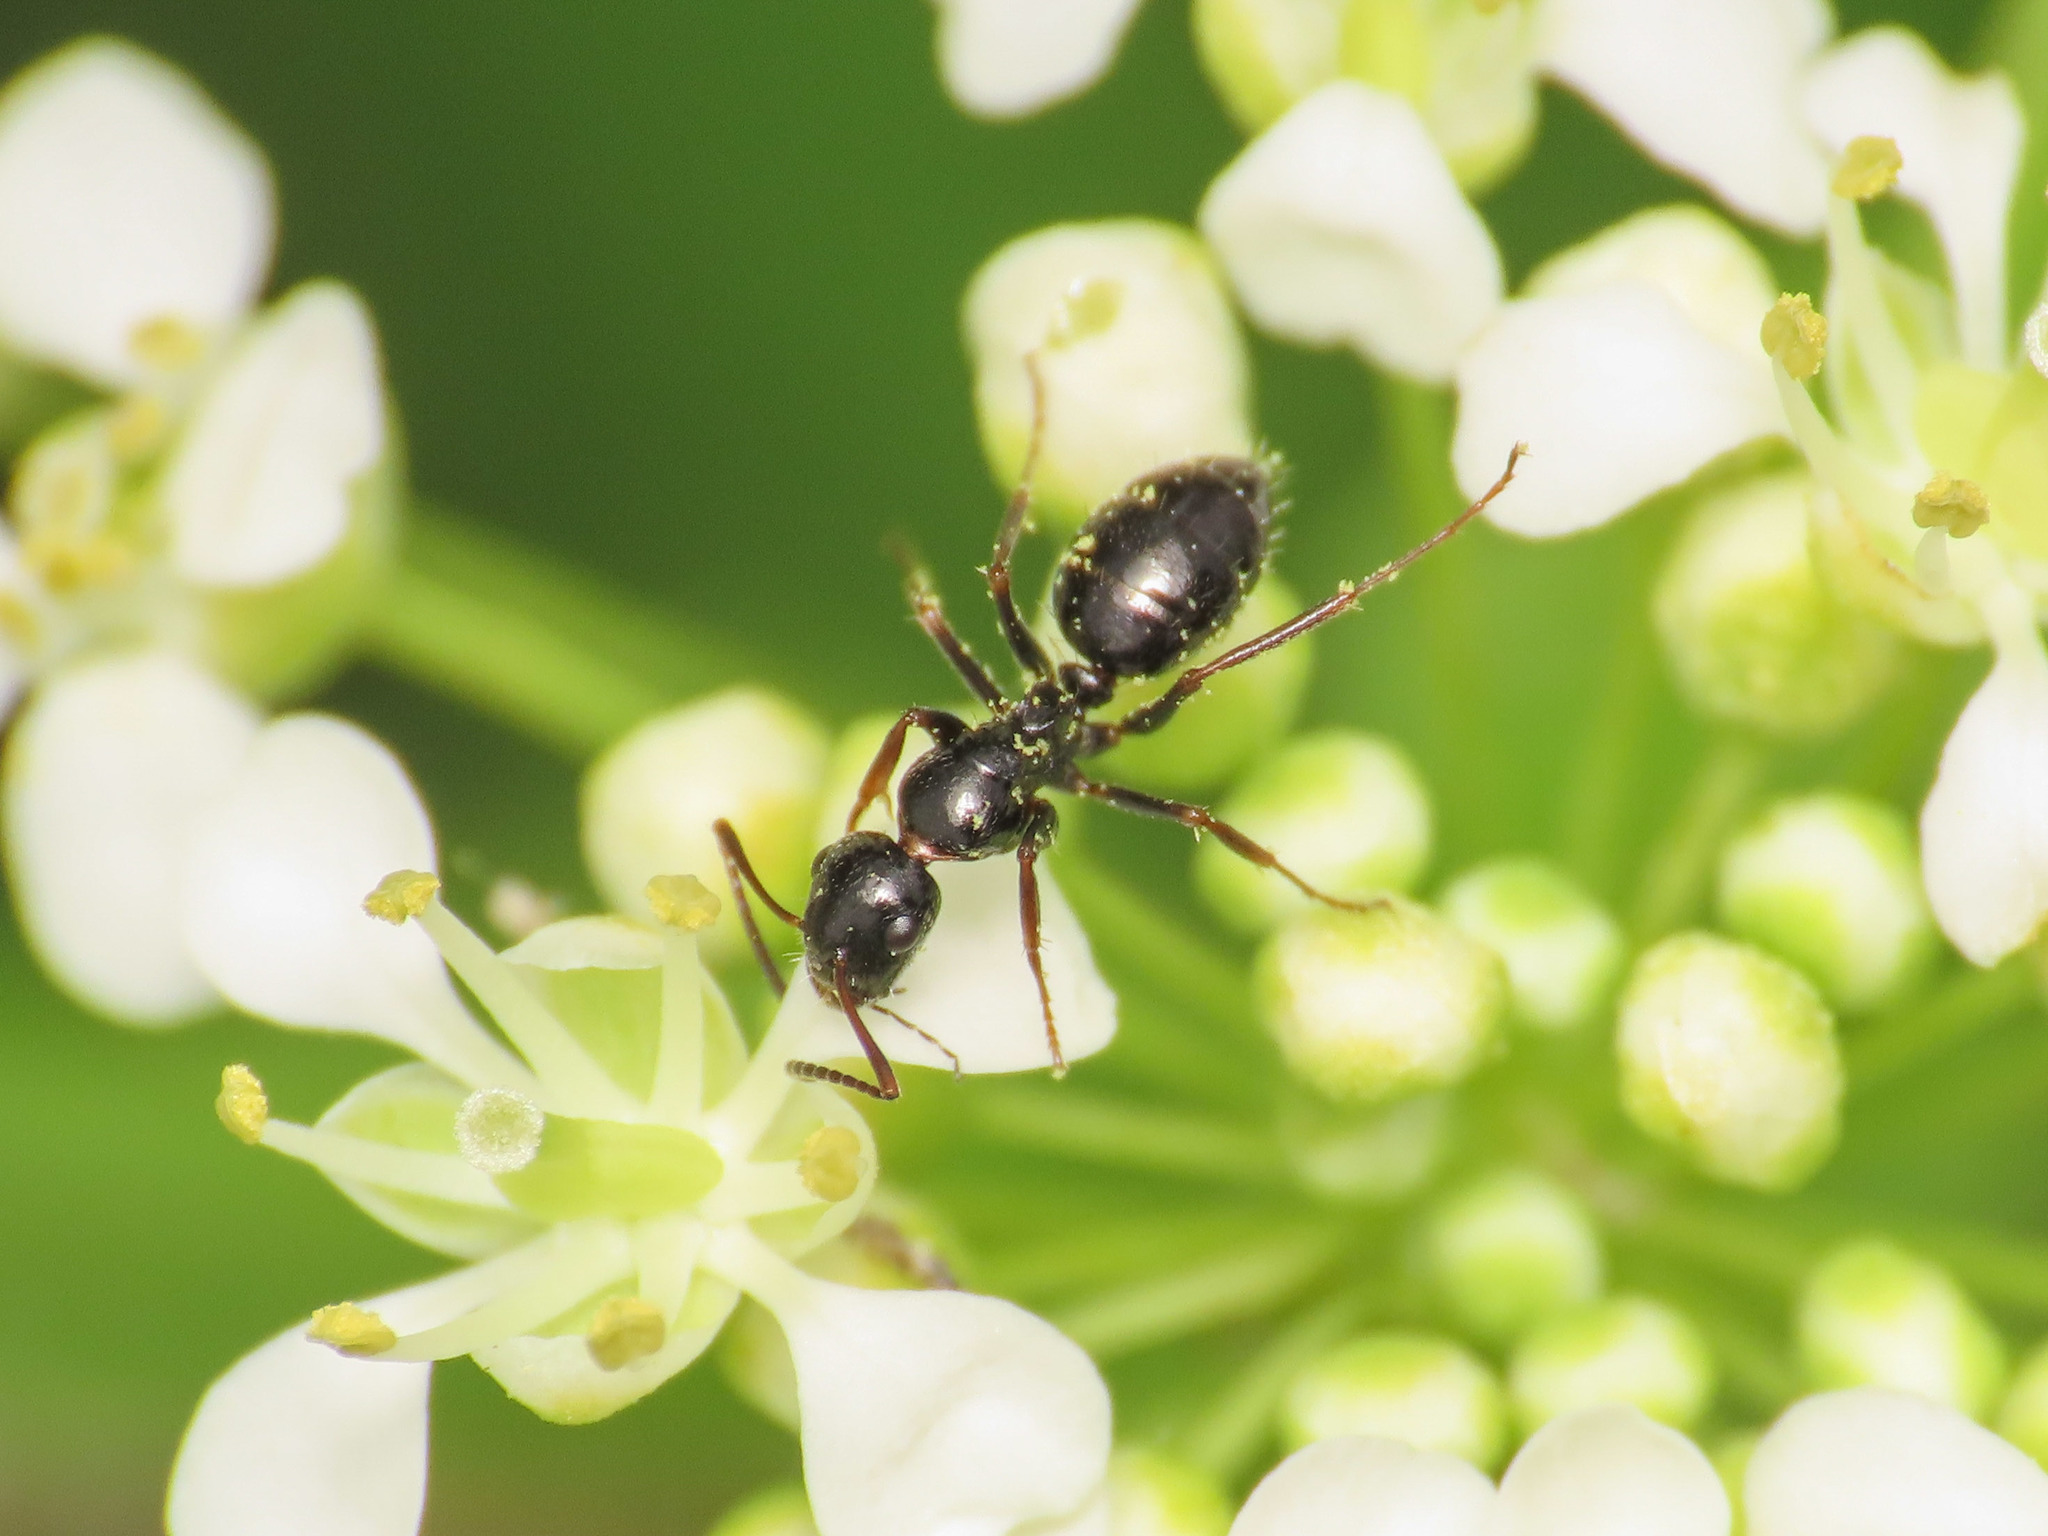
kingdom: Animalia
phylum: Arthropoda
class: Insecta
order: Hymenoptera
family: Formicidae
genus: Camponotus
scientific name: Camponotus piceus
